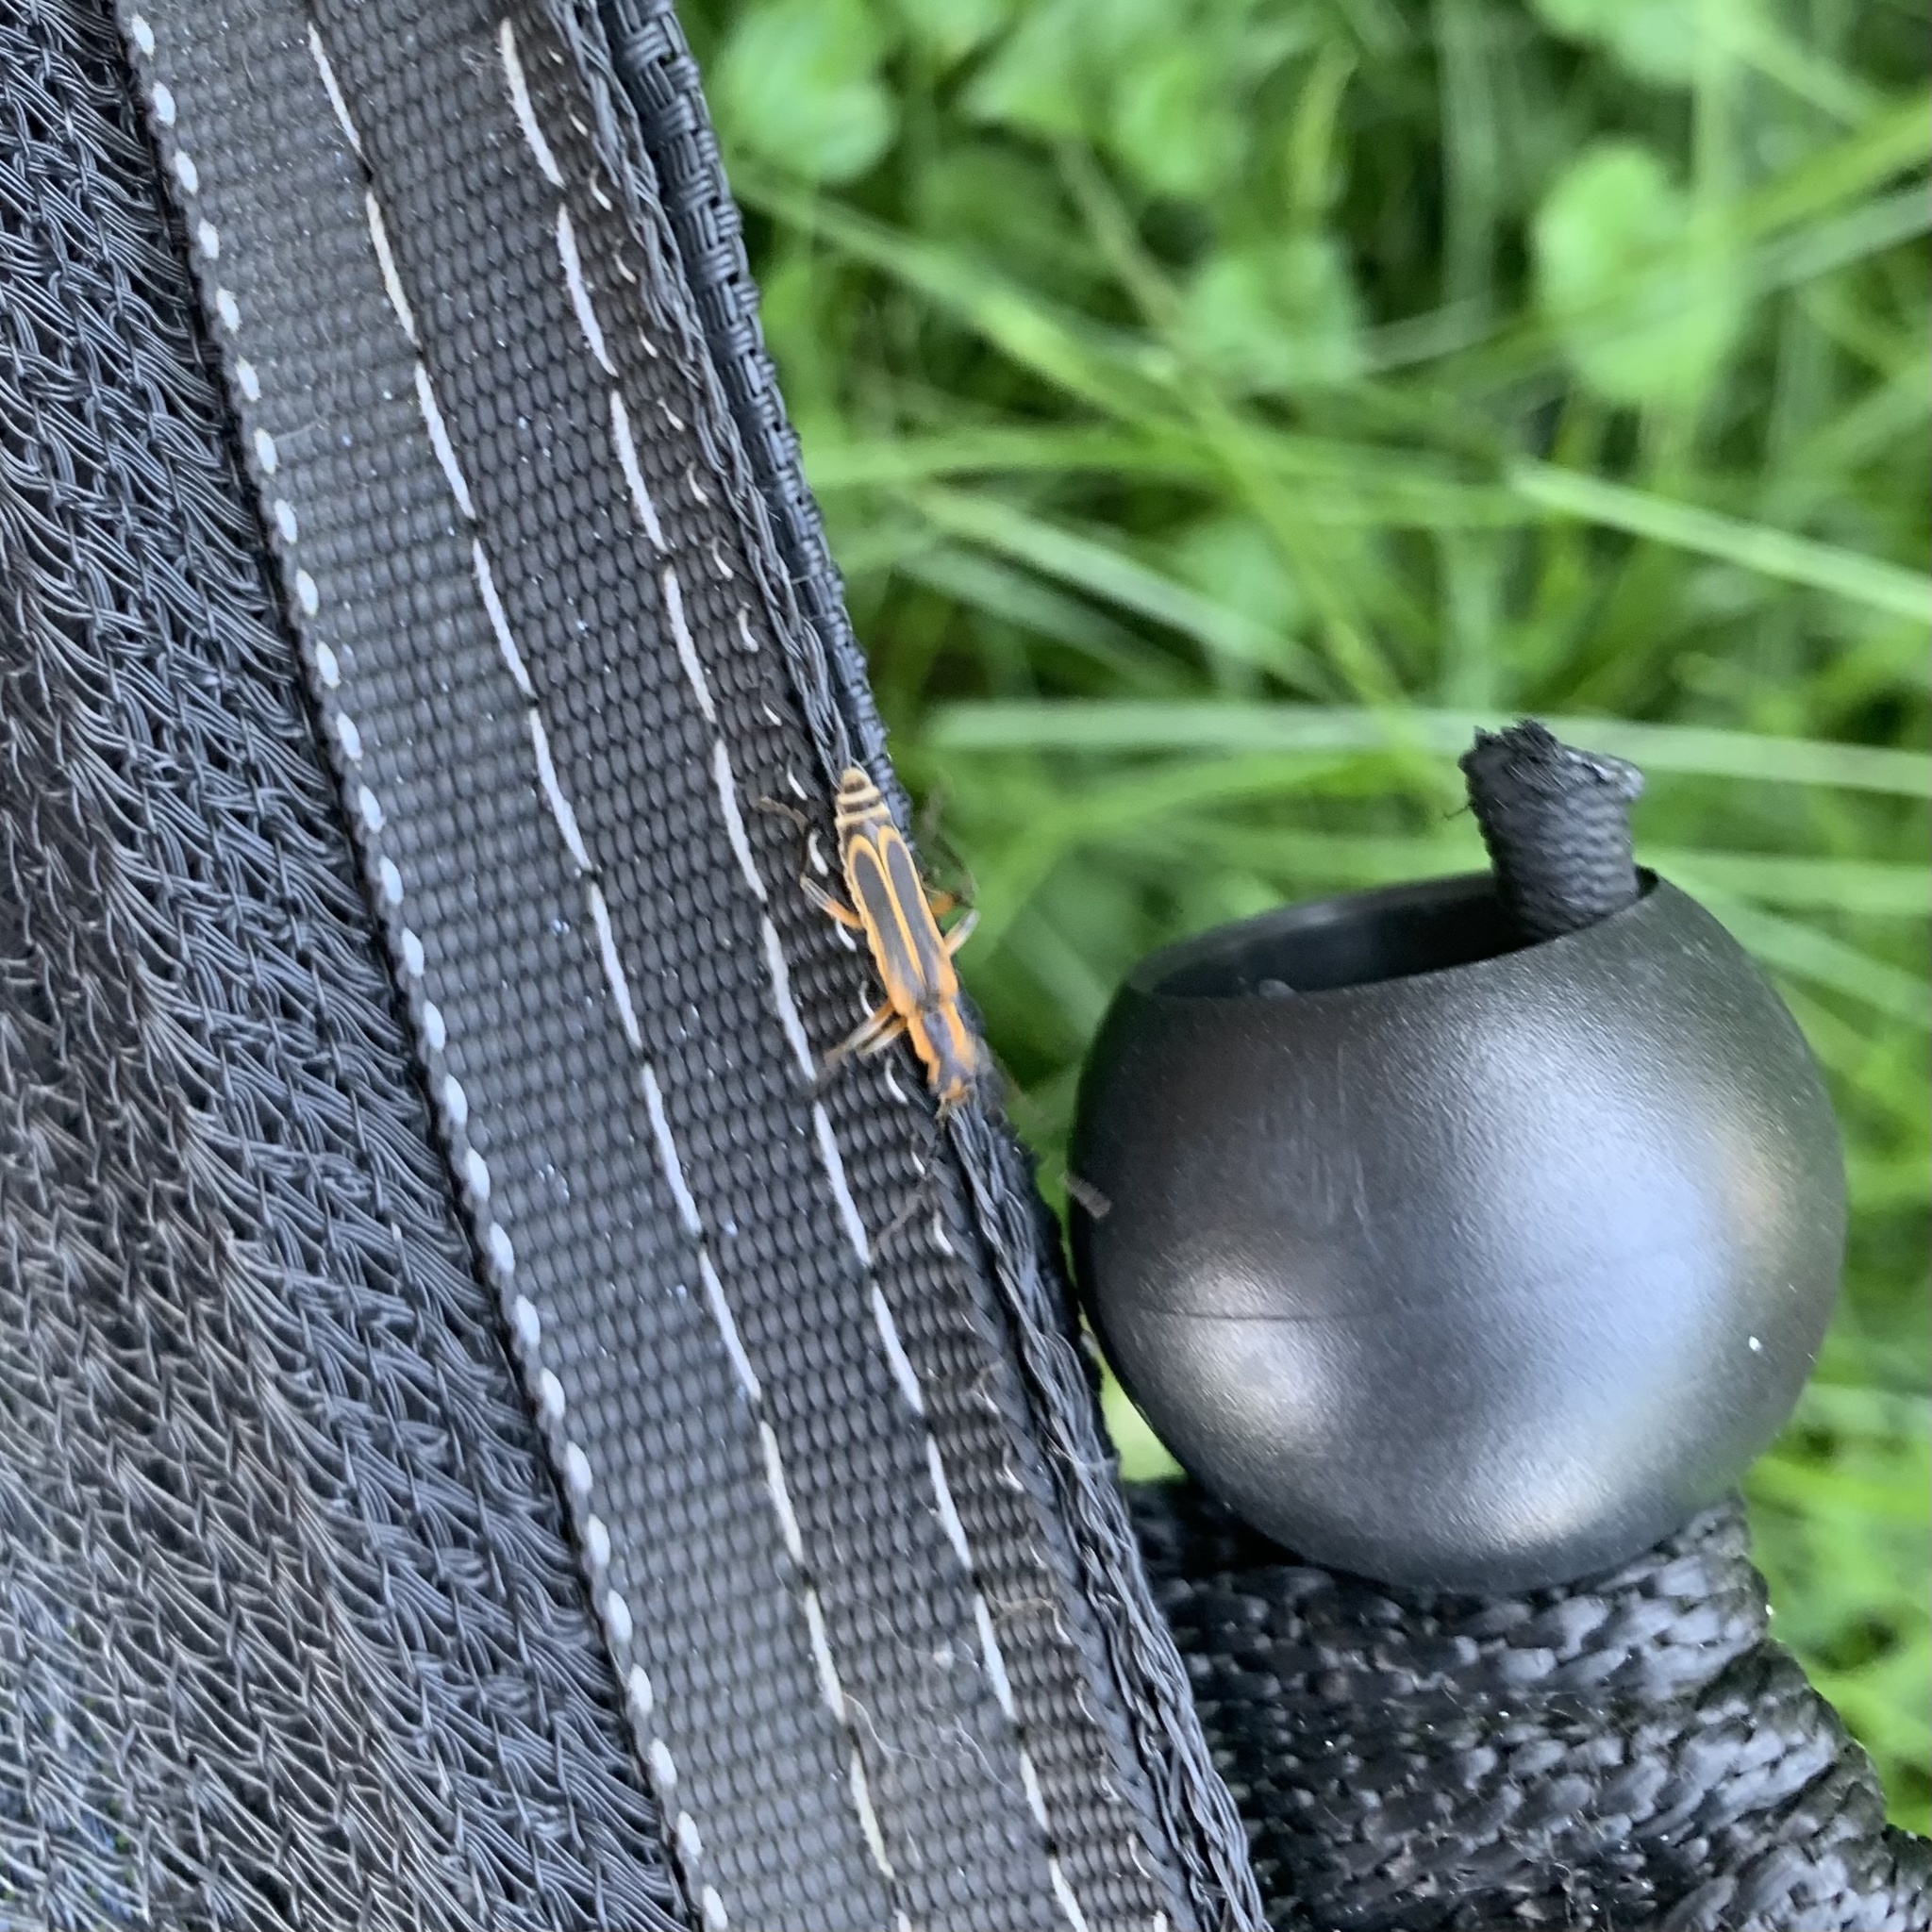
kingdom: Animalia
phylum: Arthropoda
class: Insecta
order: Coleoptera
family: Cantharidae
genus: Chauliognathus
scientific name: Chauliognathus marginatus
